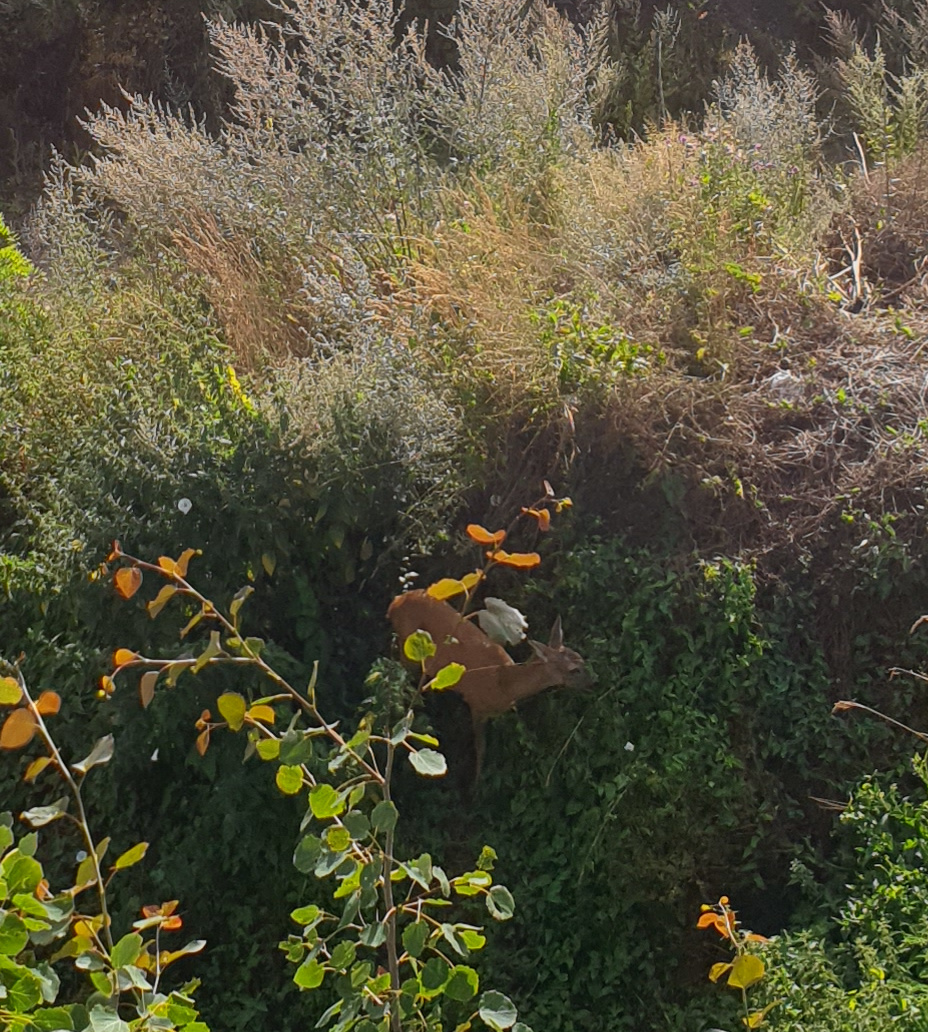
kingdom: Animalia
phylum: Chordata
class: Mammalia
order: Artiodactyla
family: Cervidae
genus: Capreolus
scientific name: Capreolus capreolus
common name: Western roe deer
